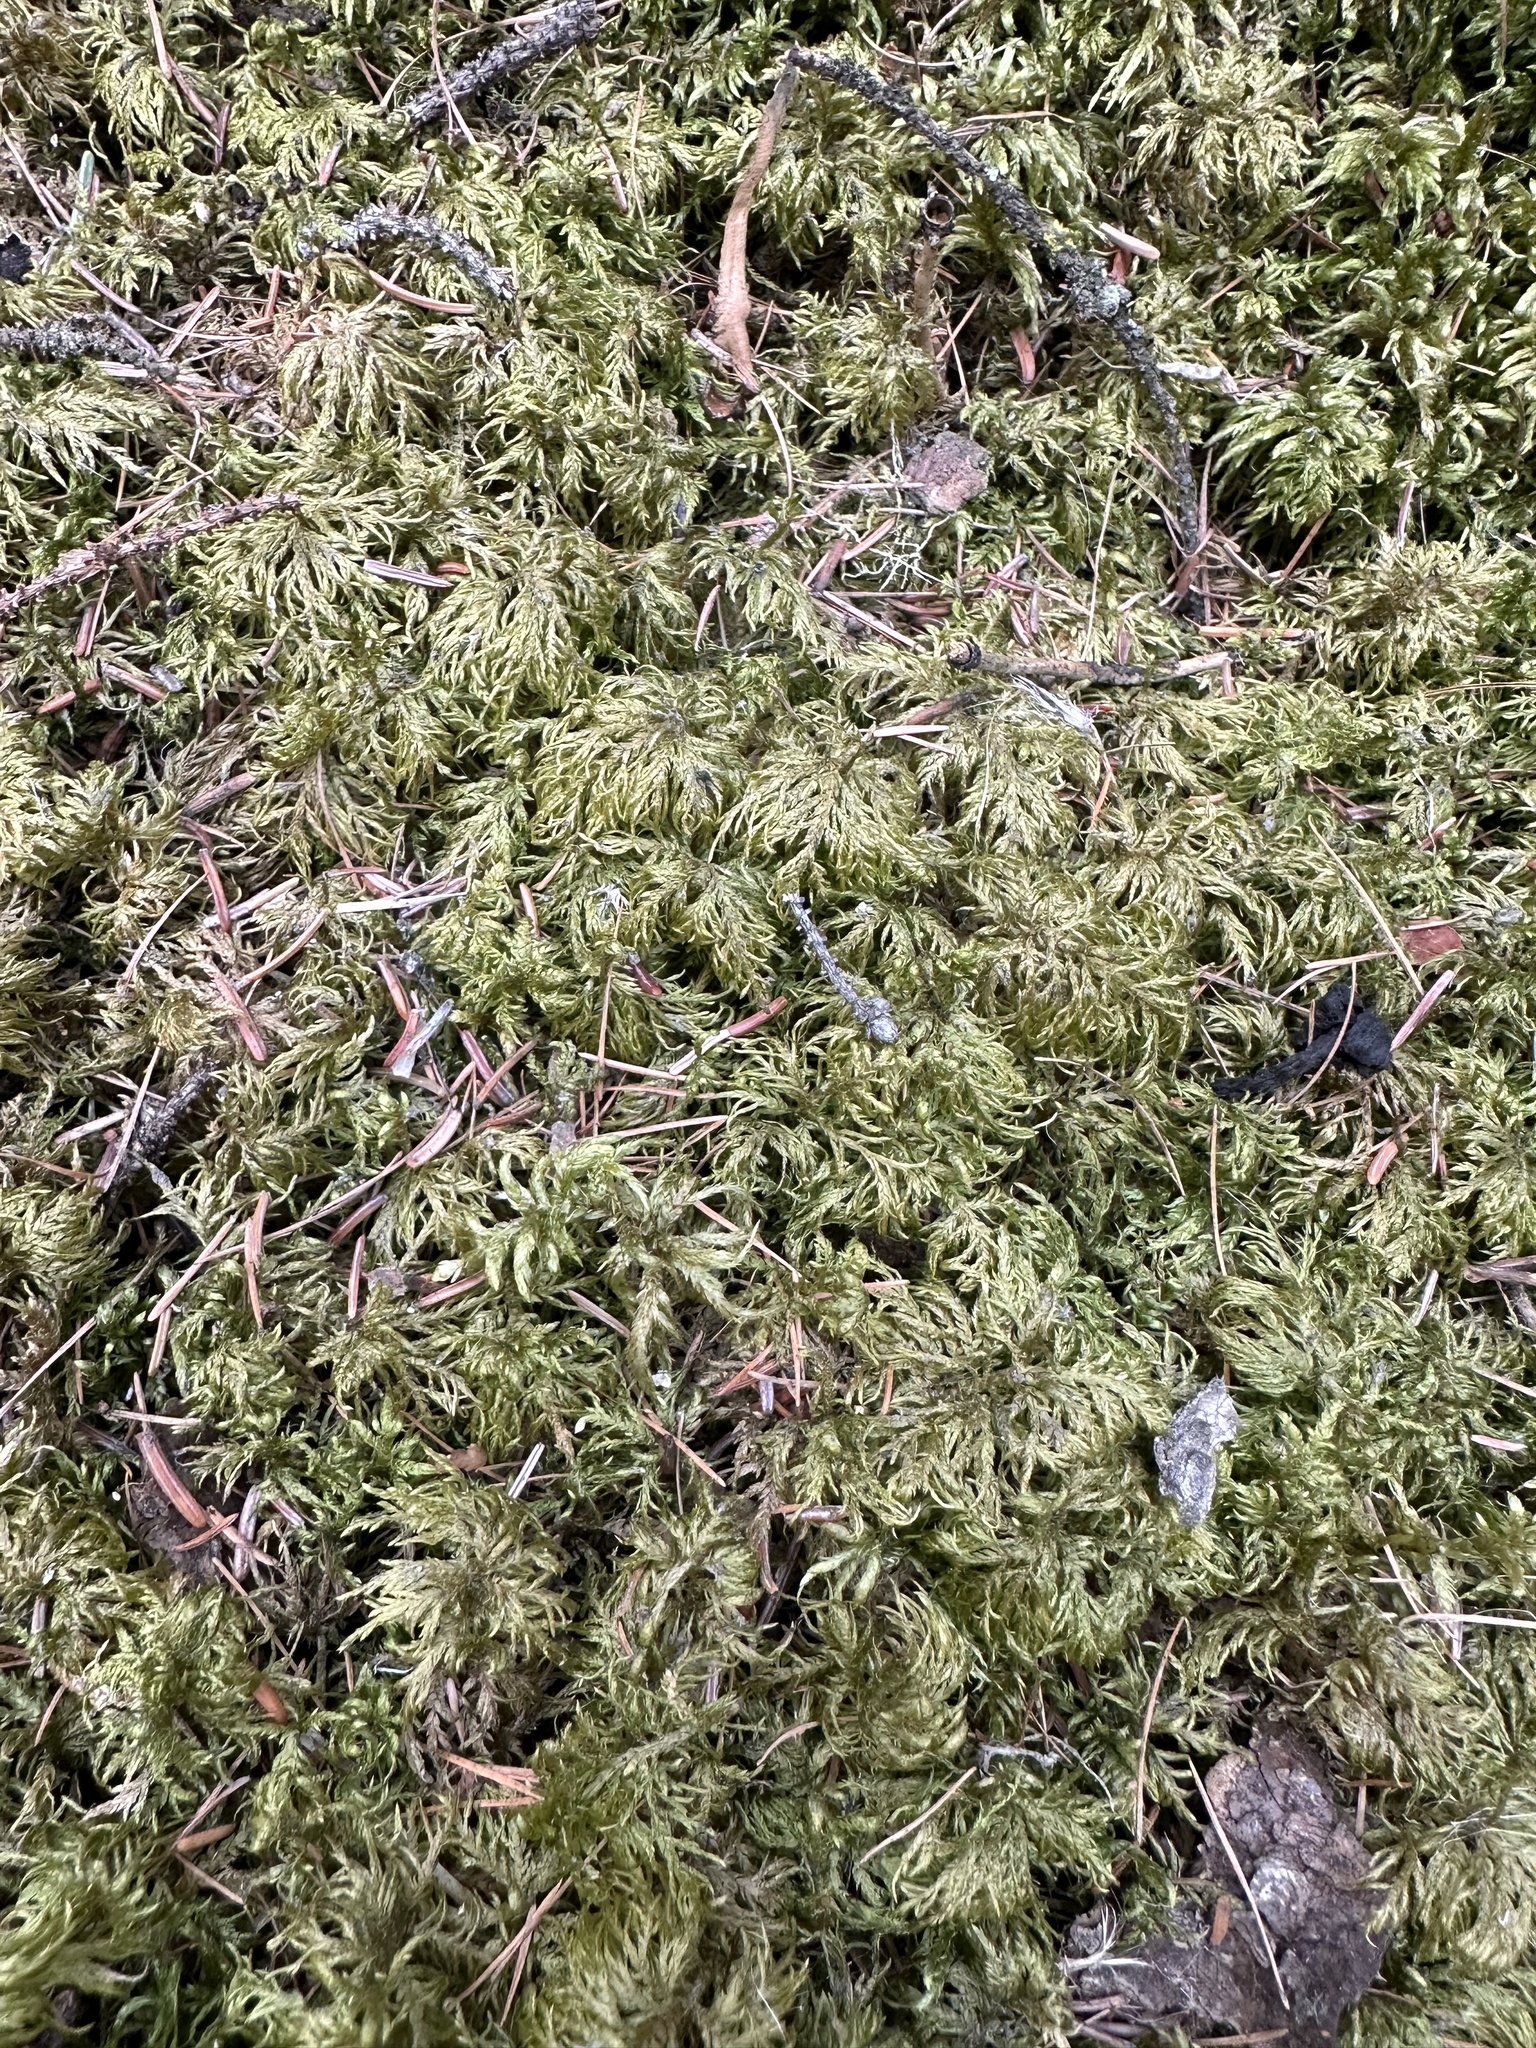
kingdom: Plantae
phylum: Bryophyta
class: Bryopsida
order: Hypnales
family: Hylocomiaceae
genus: Hylocomium
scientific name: Hylocomium splendens
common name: Stairstep moss
